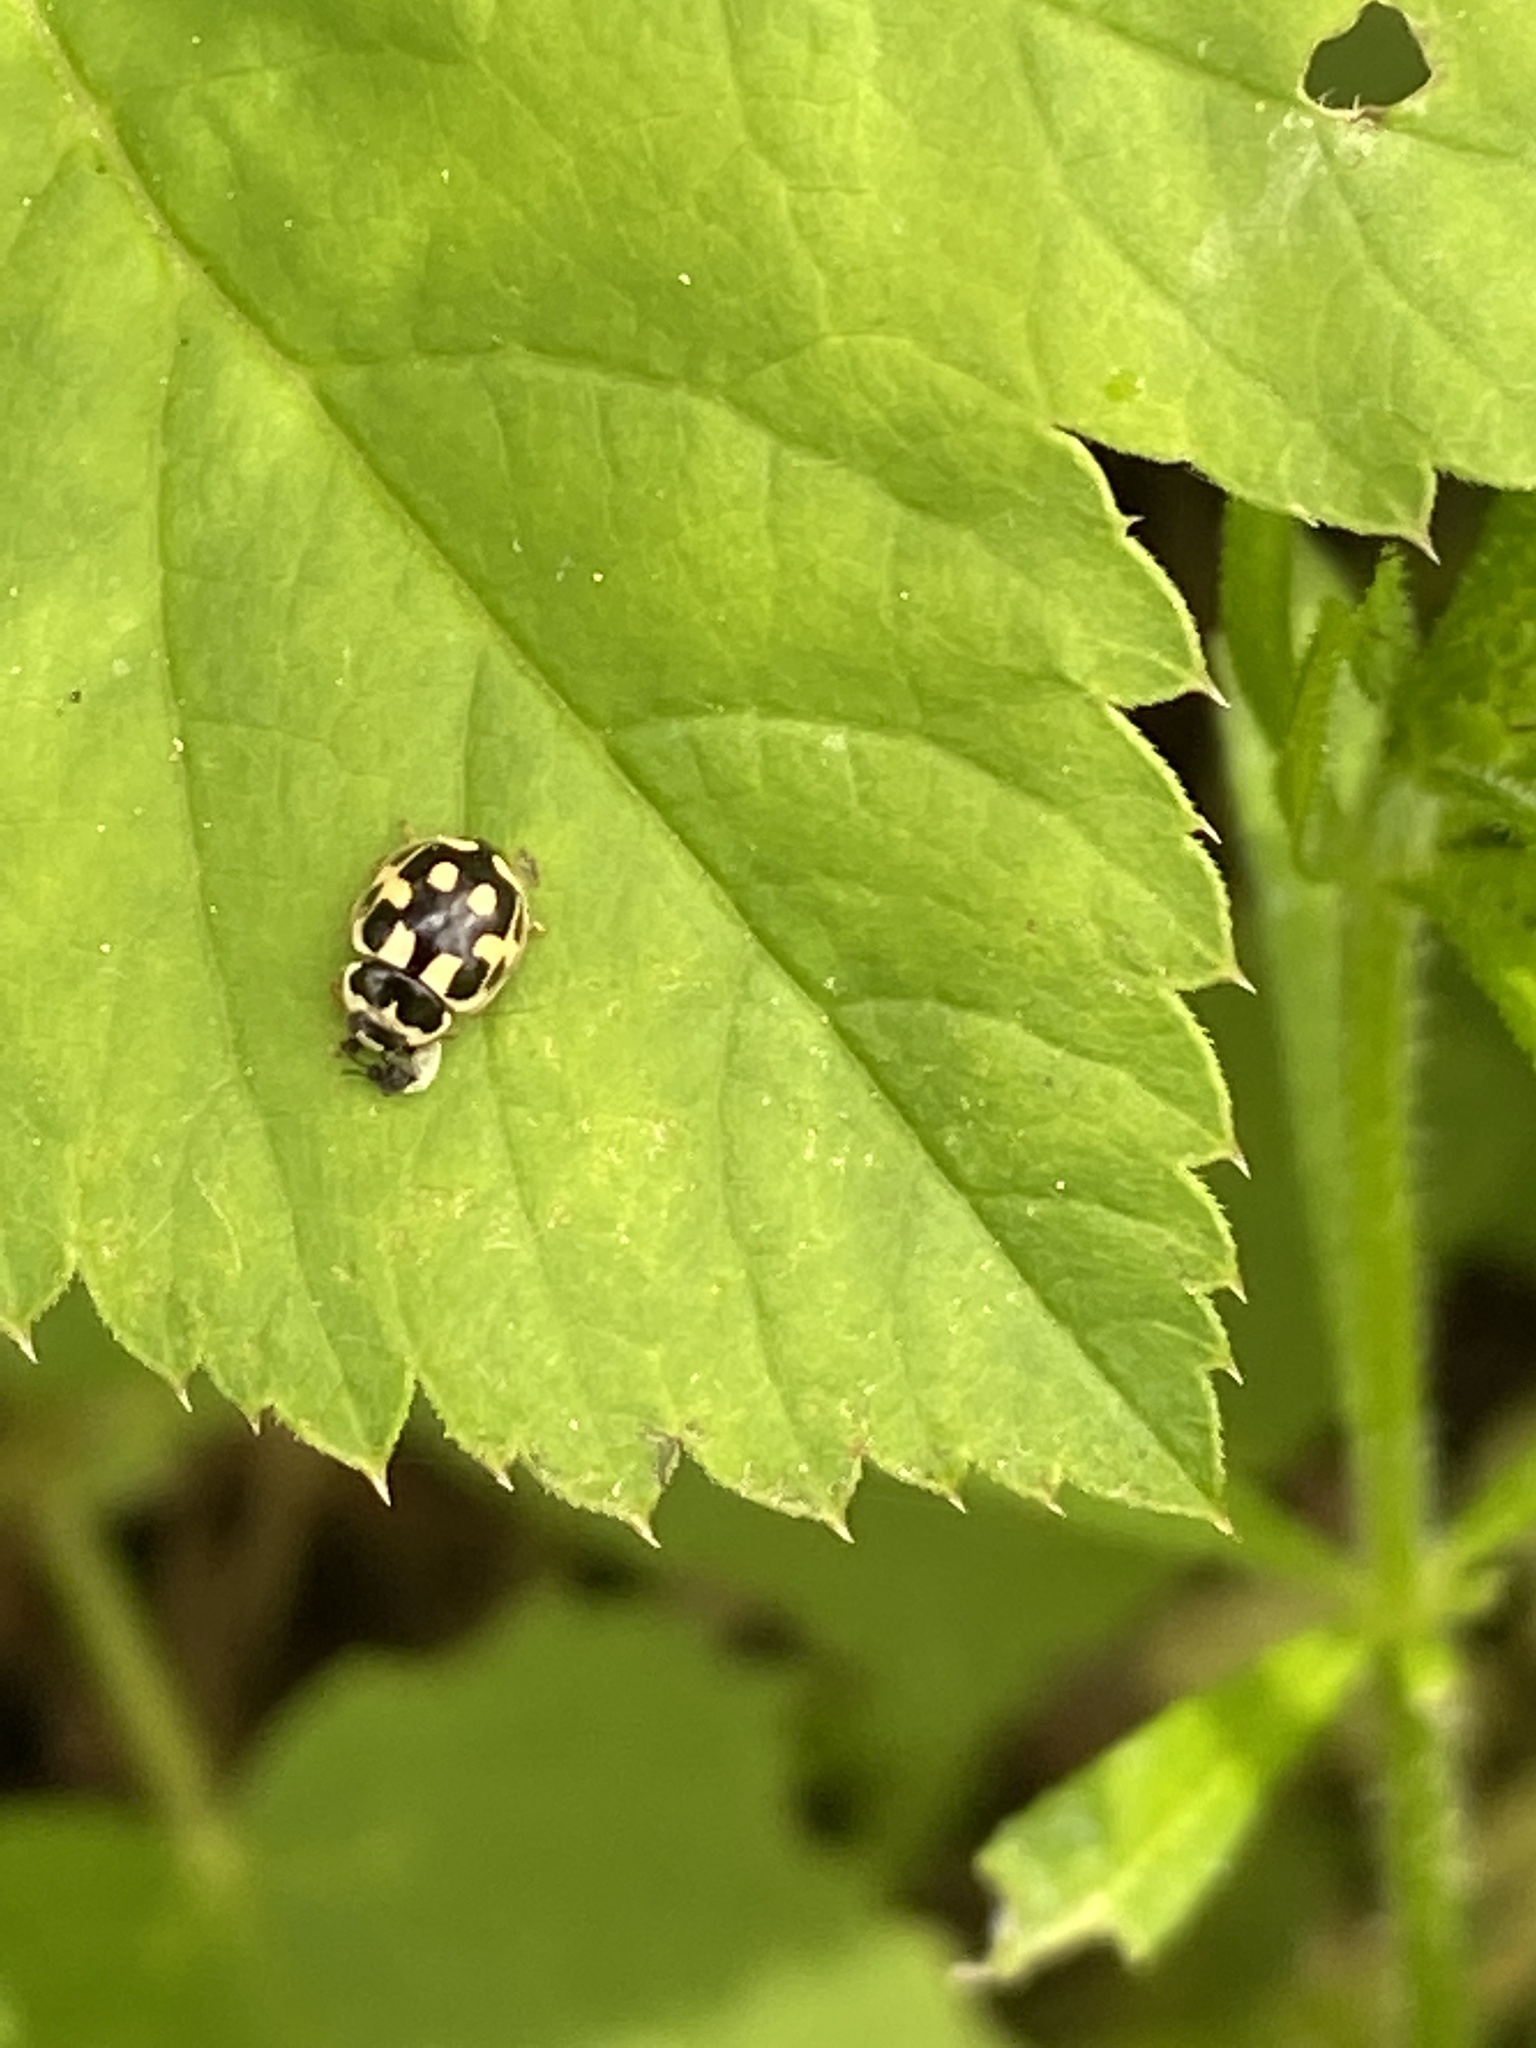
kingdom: Animalia
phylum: Arthropoda
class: Insecta
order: Coleoptera
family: Coccinellidae
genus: Propylaea
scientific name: Propylaea quatuordecimpunctata
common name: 14-spotted ladybird beetle
